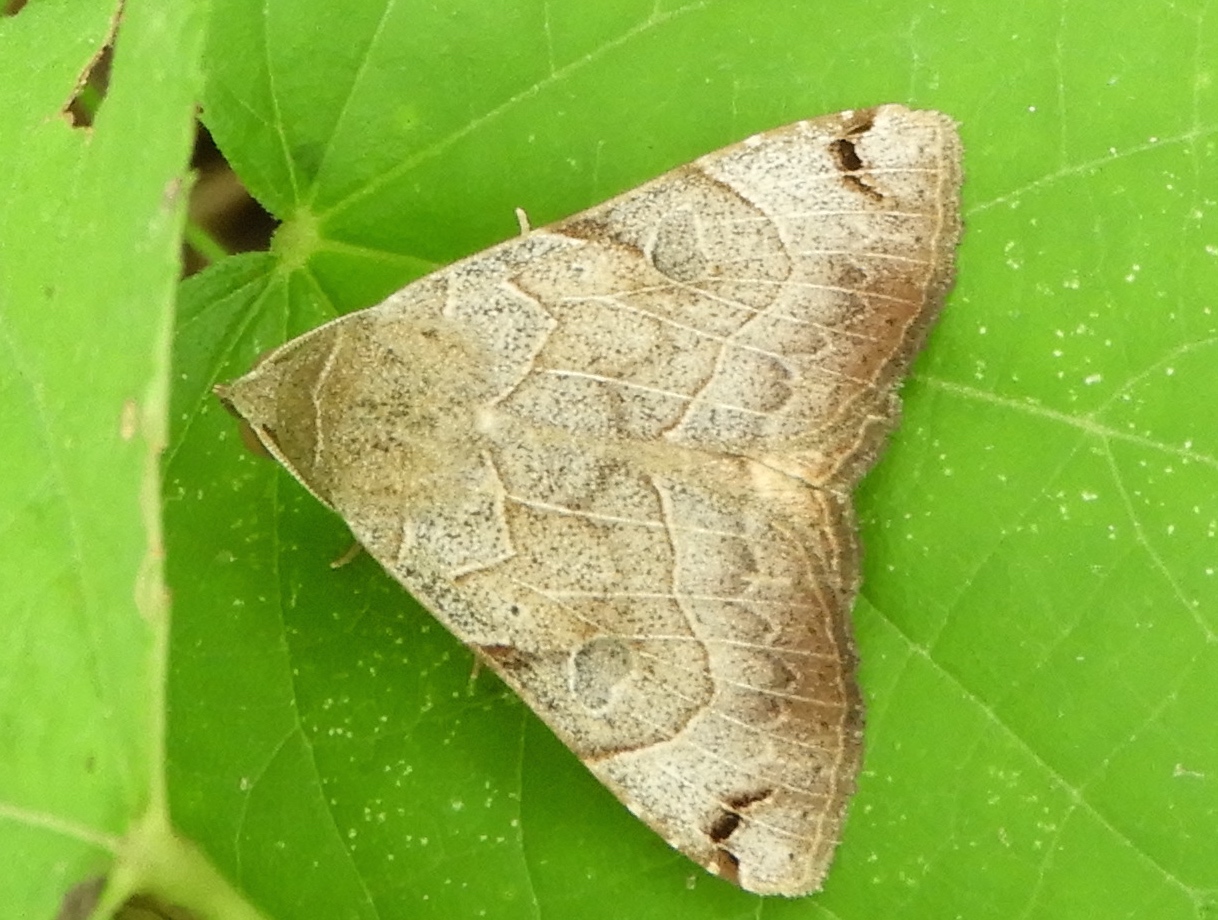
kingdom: Animalia
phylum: Arthropoda
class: Insecta
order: Lepidoptera
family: Erebidae
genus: Isogona
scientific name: Isogona scindens
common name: Owlet moth
